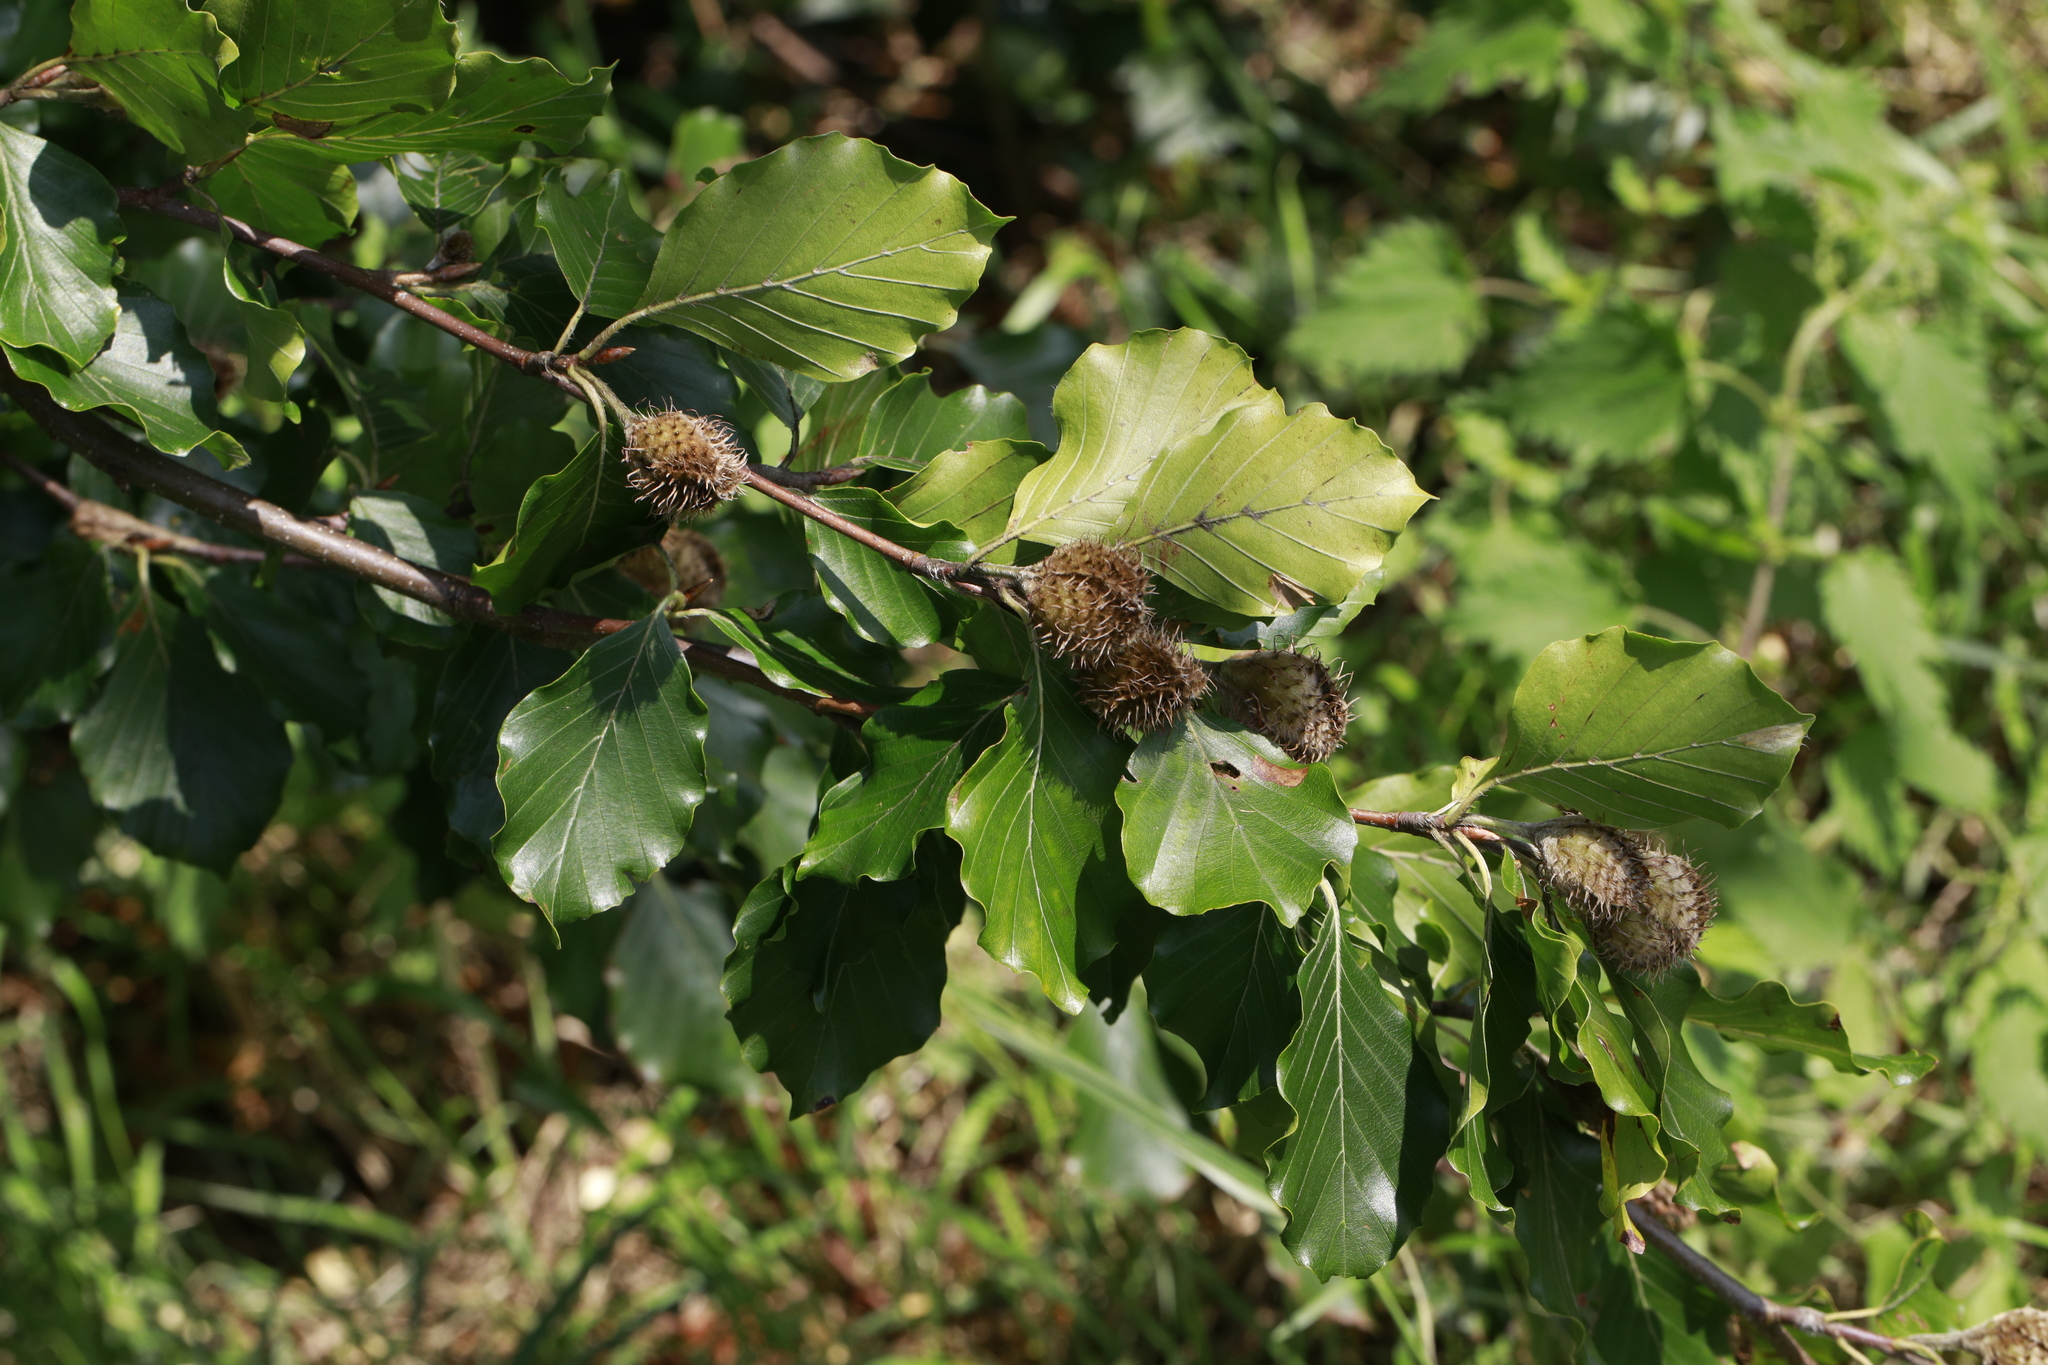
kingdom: Plantae
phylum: Tracheophyta
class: Magnoliopsida
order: Fagales
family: Fagaceae
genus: Fagus
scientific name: Fagus sylvatica
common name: Beech
